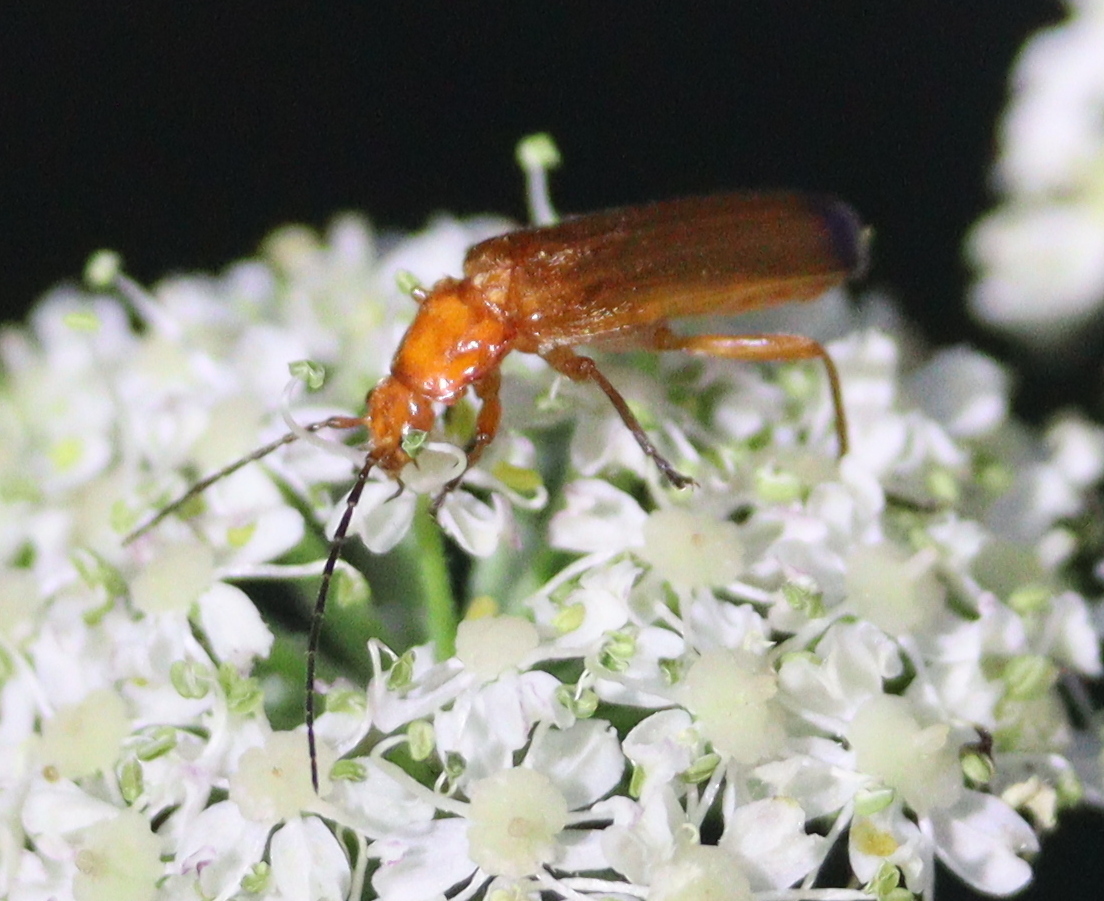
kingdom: Animalia
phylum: Arthropoda
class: Insecta
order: Coleoptera
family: Cantharidae
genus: Rhagonycha
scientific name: Rhagonycha fulva
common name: Common red soldier beetle
